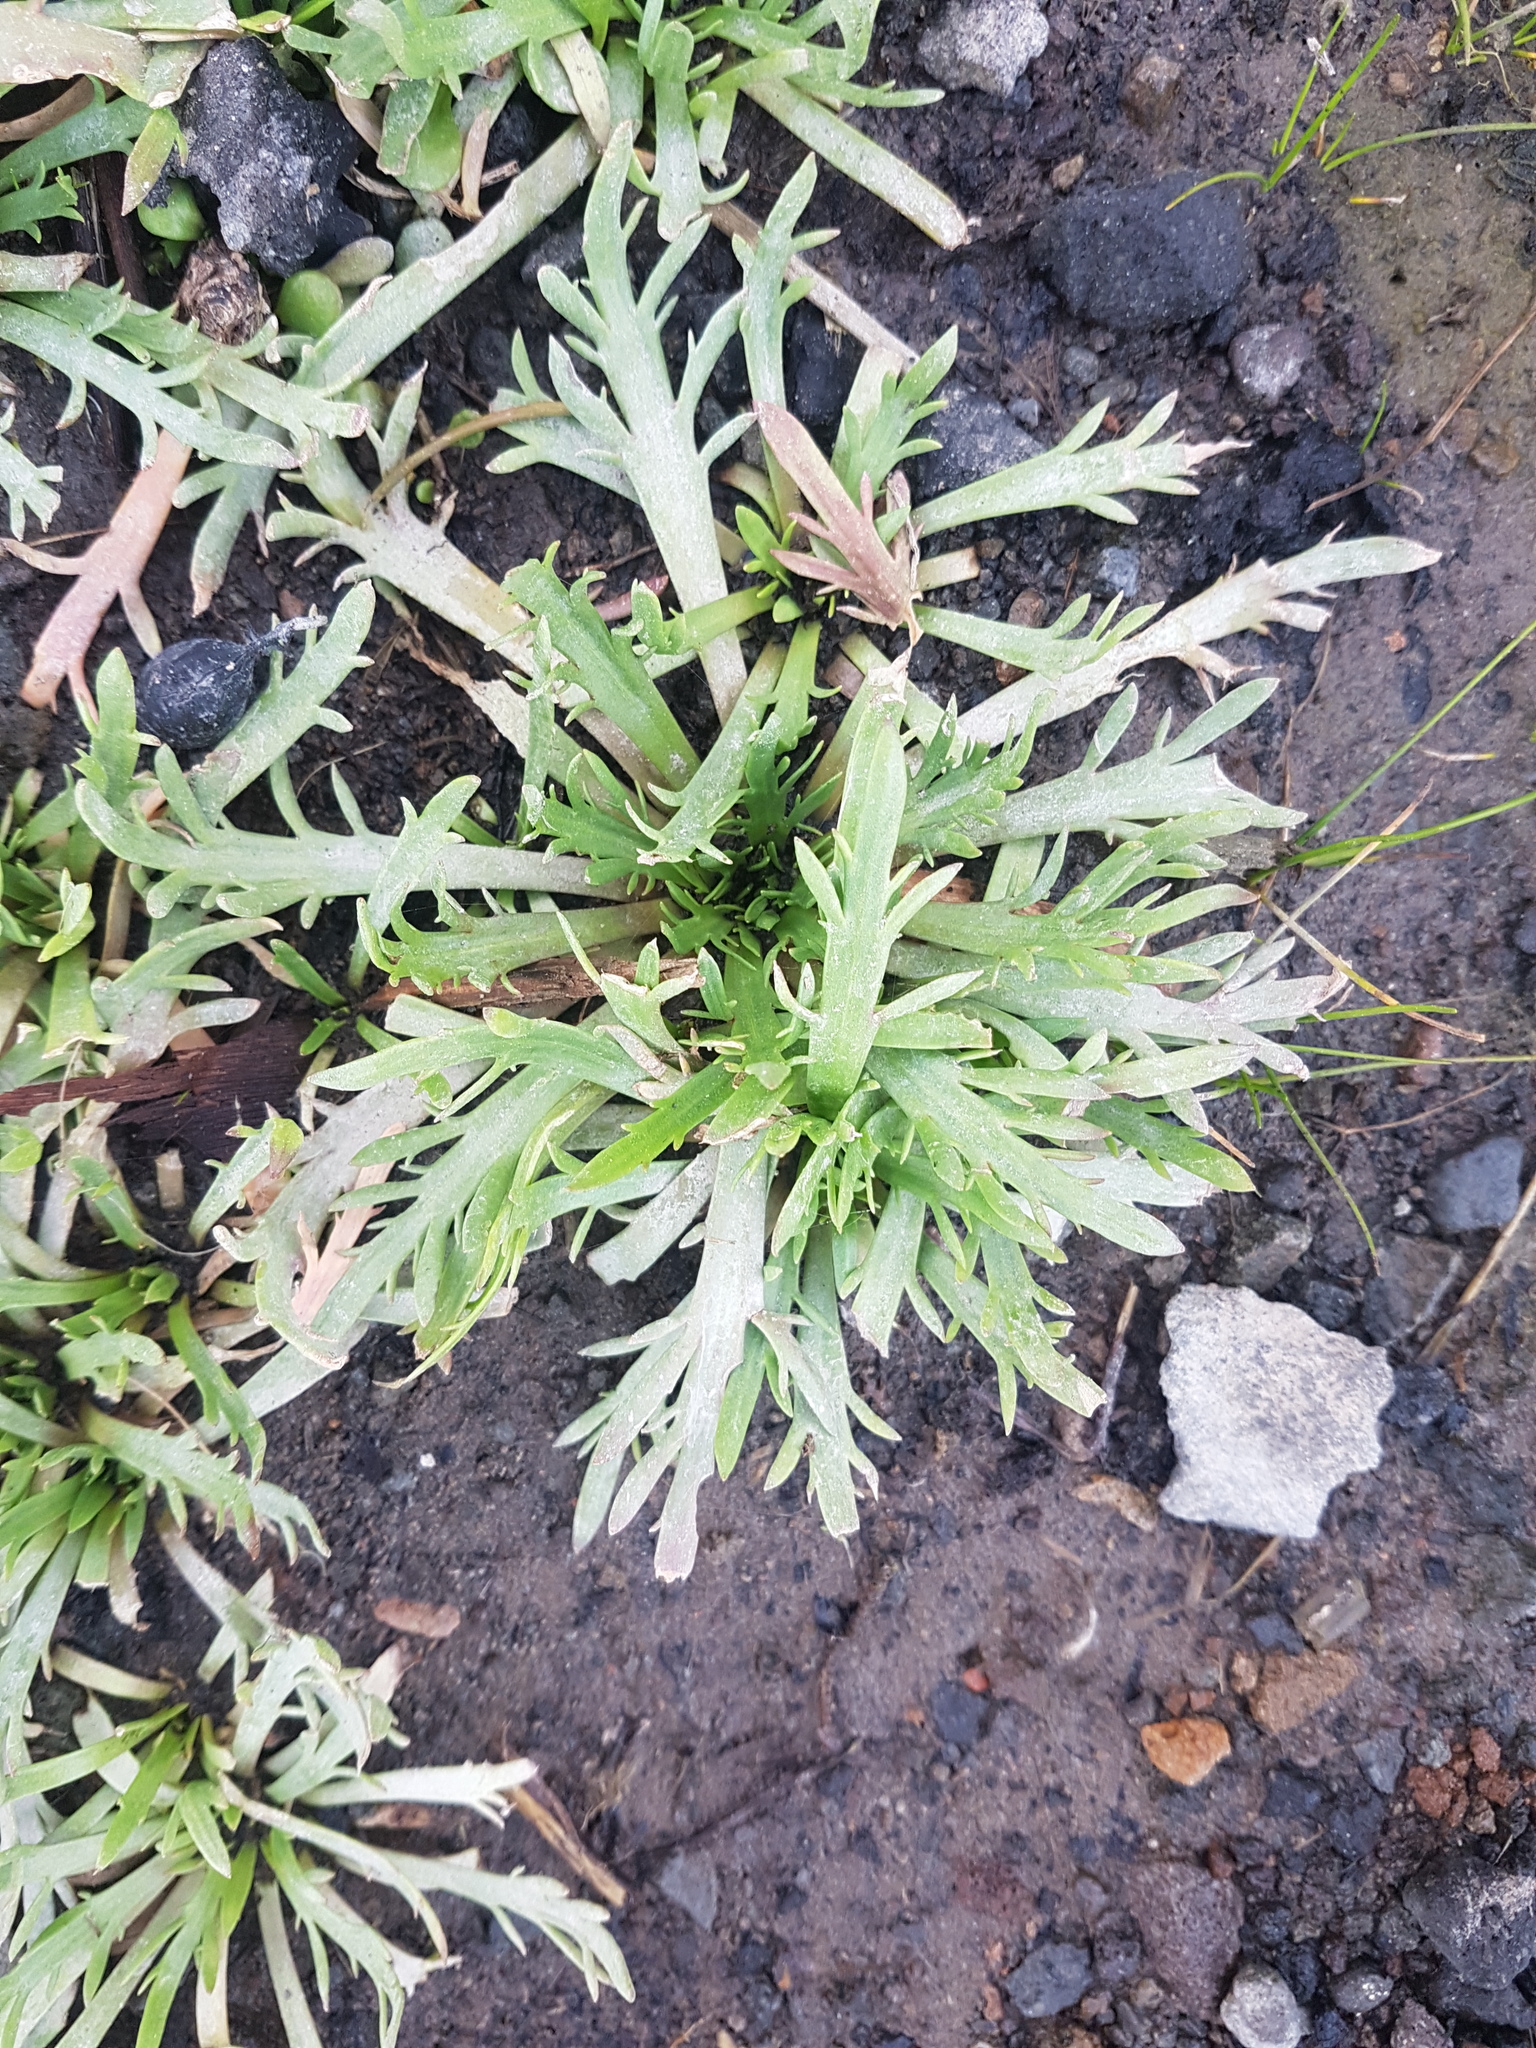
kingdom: Plantae
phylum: Tracheophyta
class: Magnoliopsida
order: Lamiales
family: Plantaginaceae
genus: Plantago
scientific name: Plantago coronopus
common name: Buck's-horn plantain
